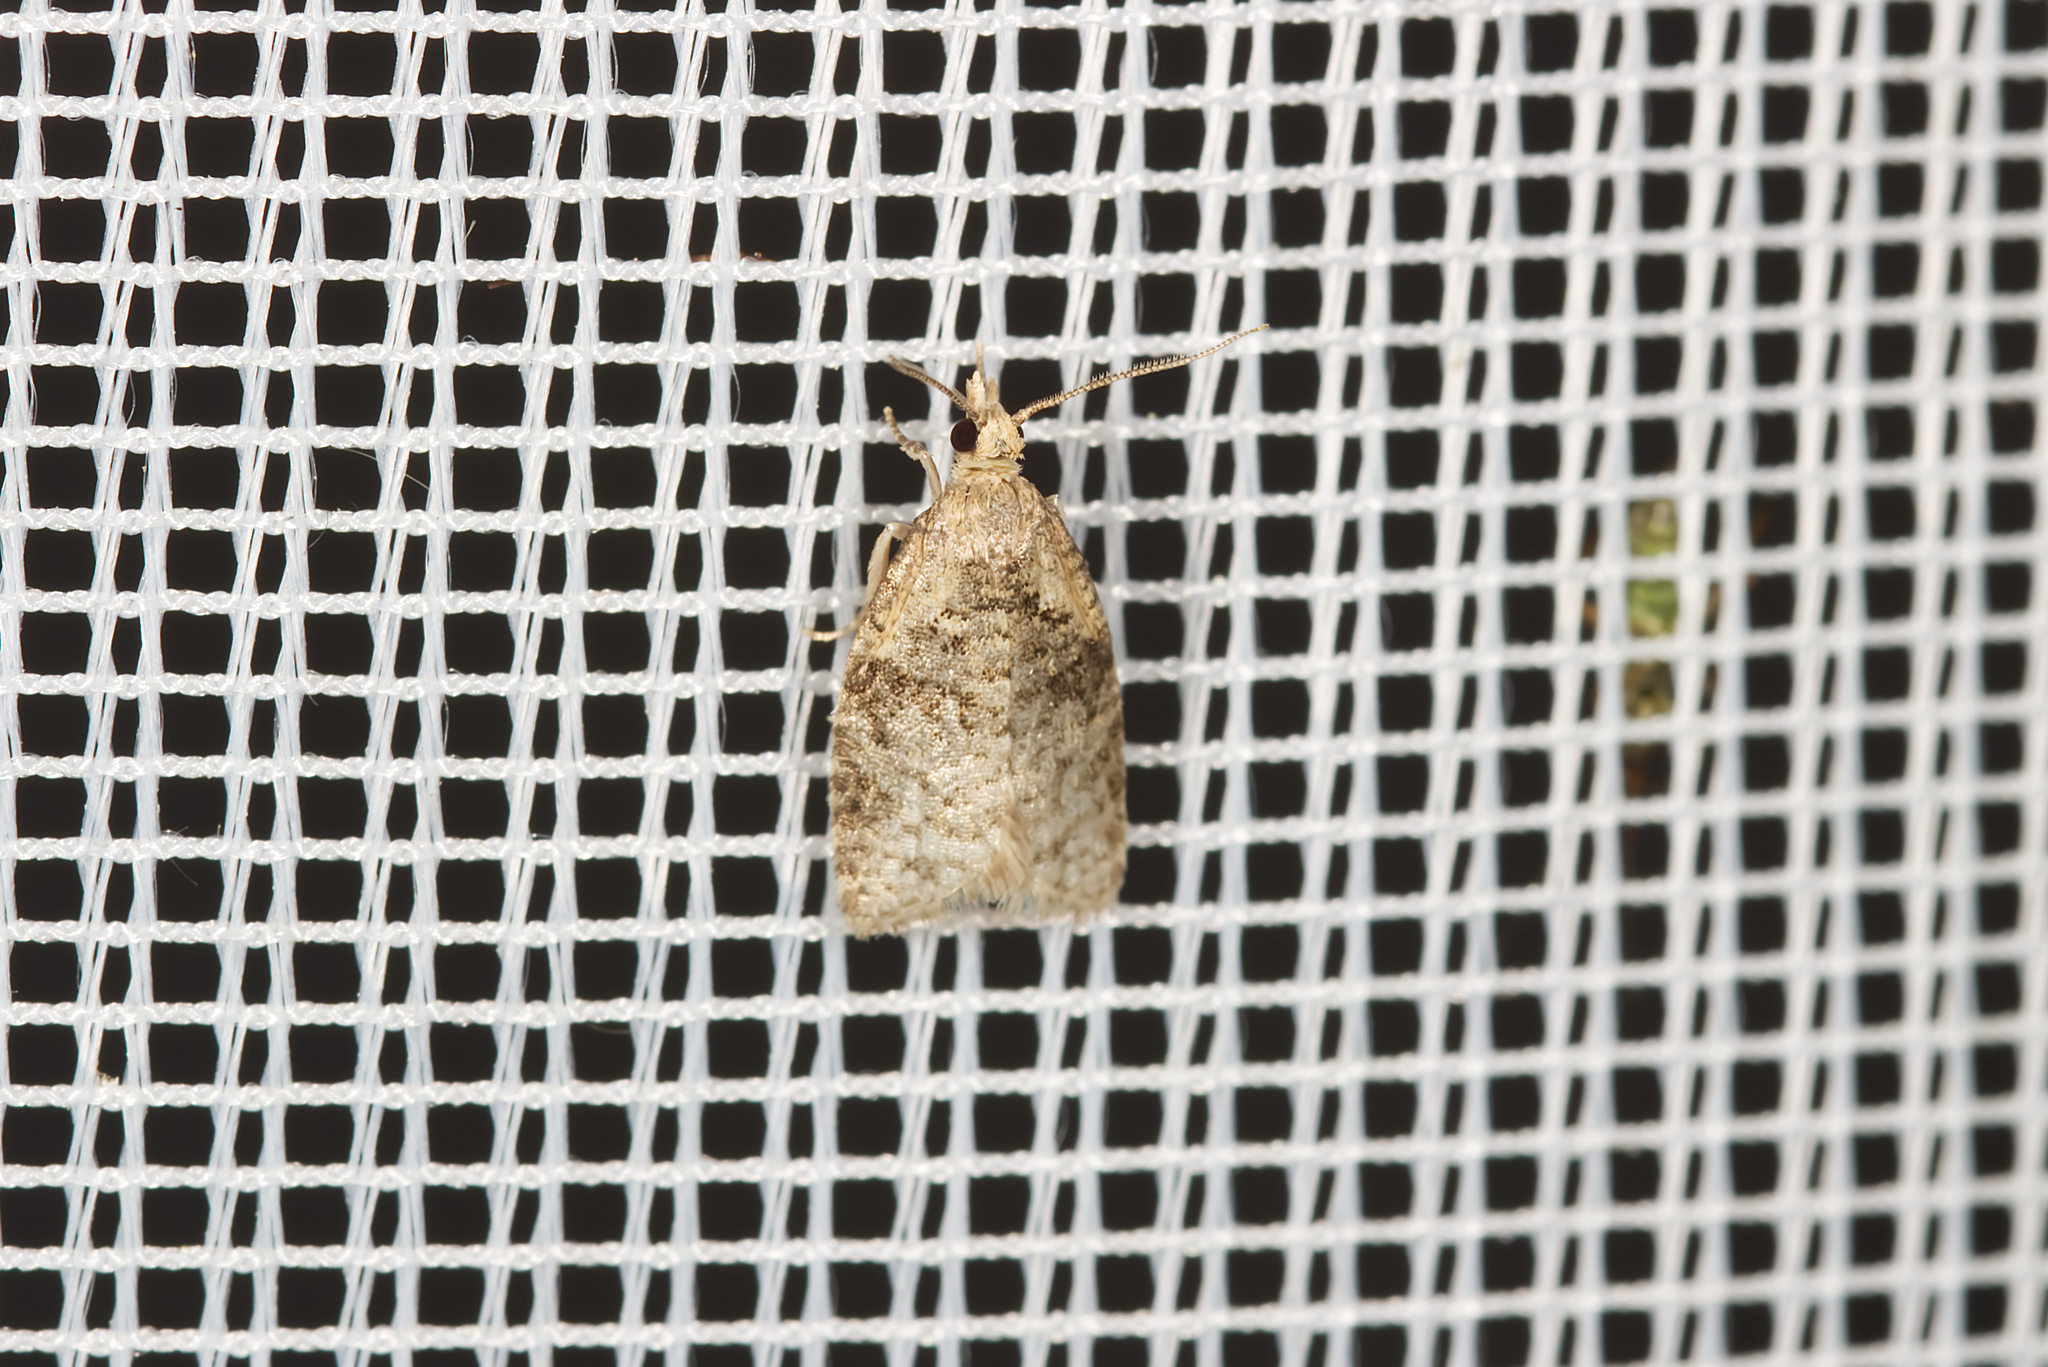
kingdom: Animalia
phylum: Arthropoda
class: Insecta
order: Lepidoptera
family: Tortricidae
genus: Capua
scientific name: Capua vulgana
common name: Common twist
